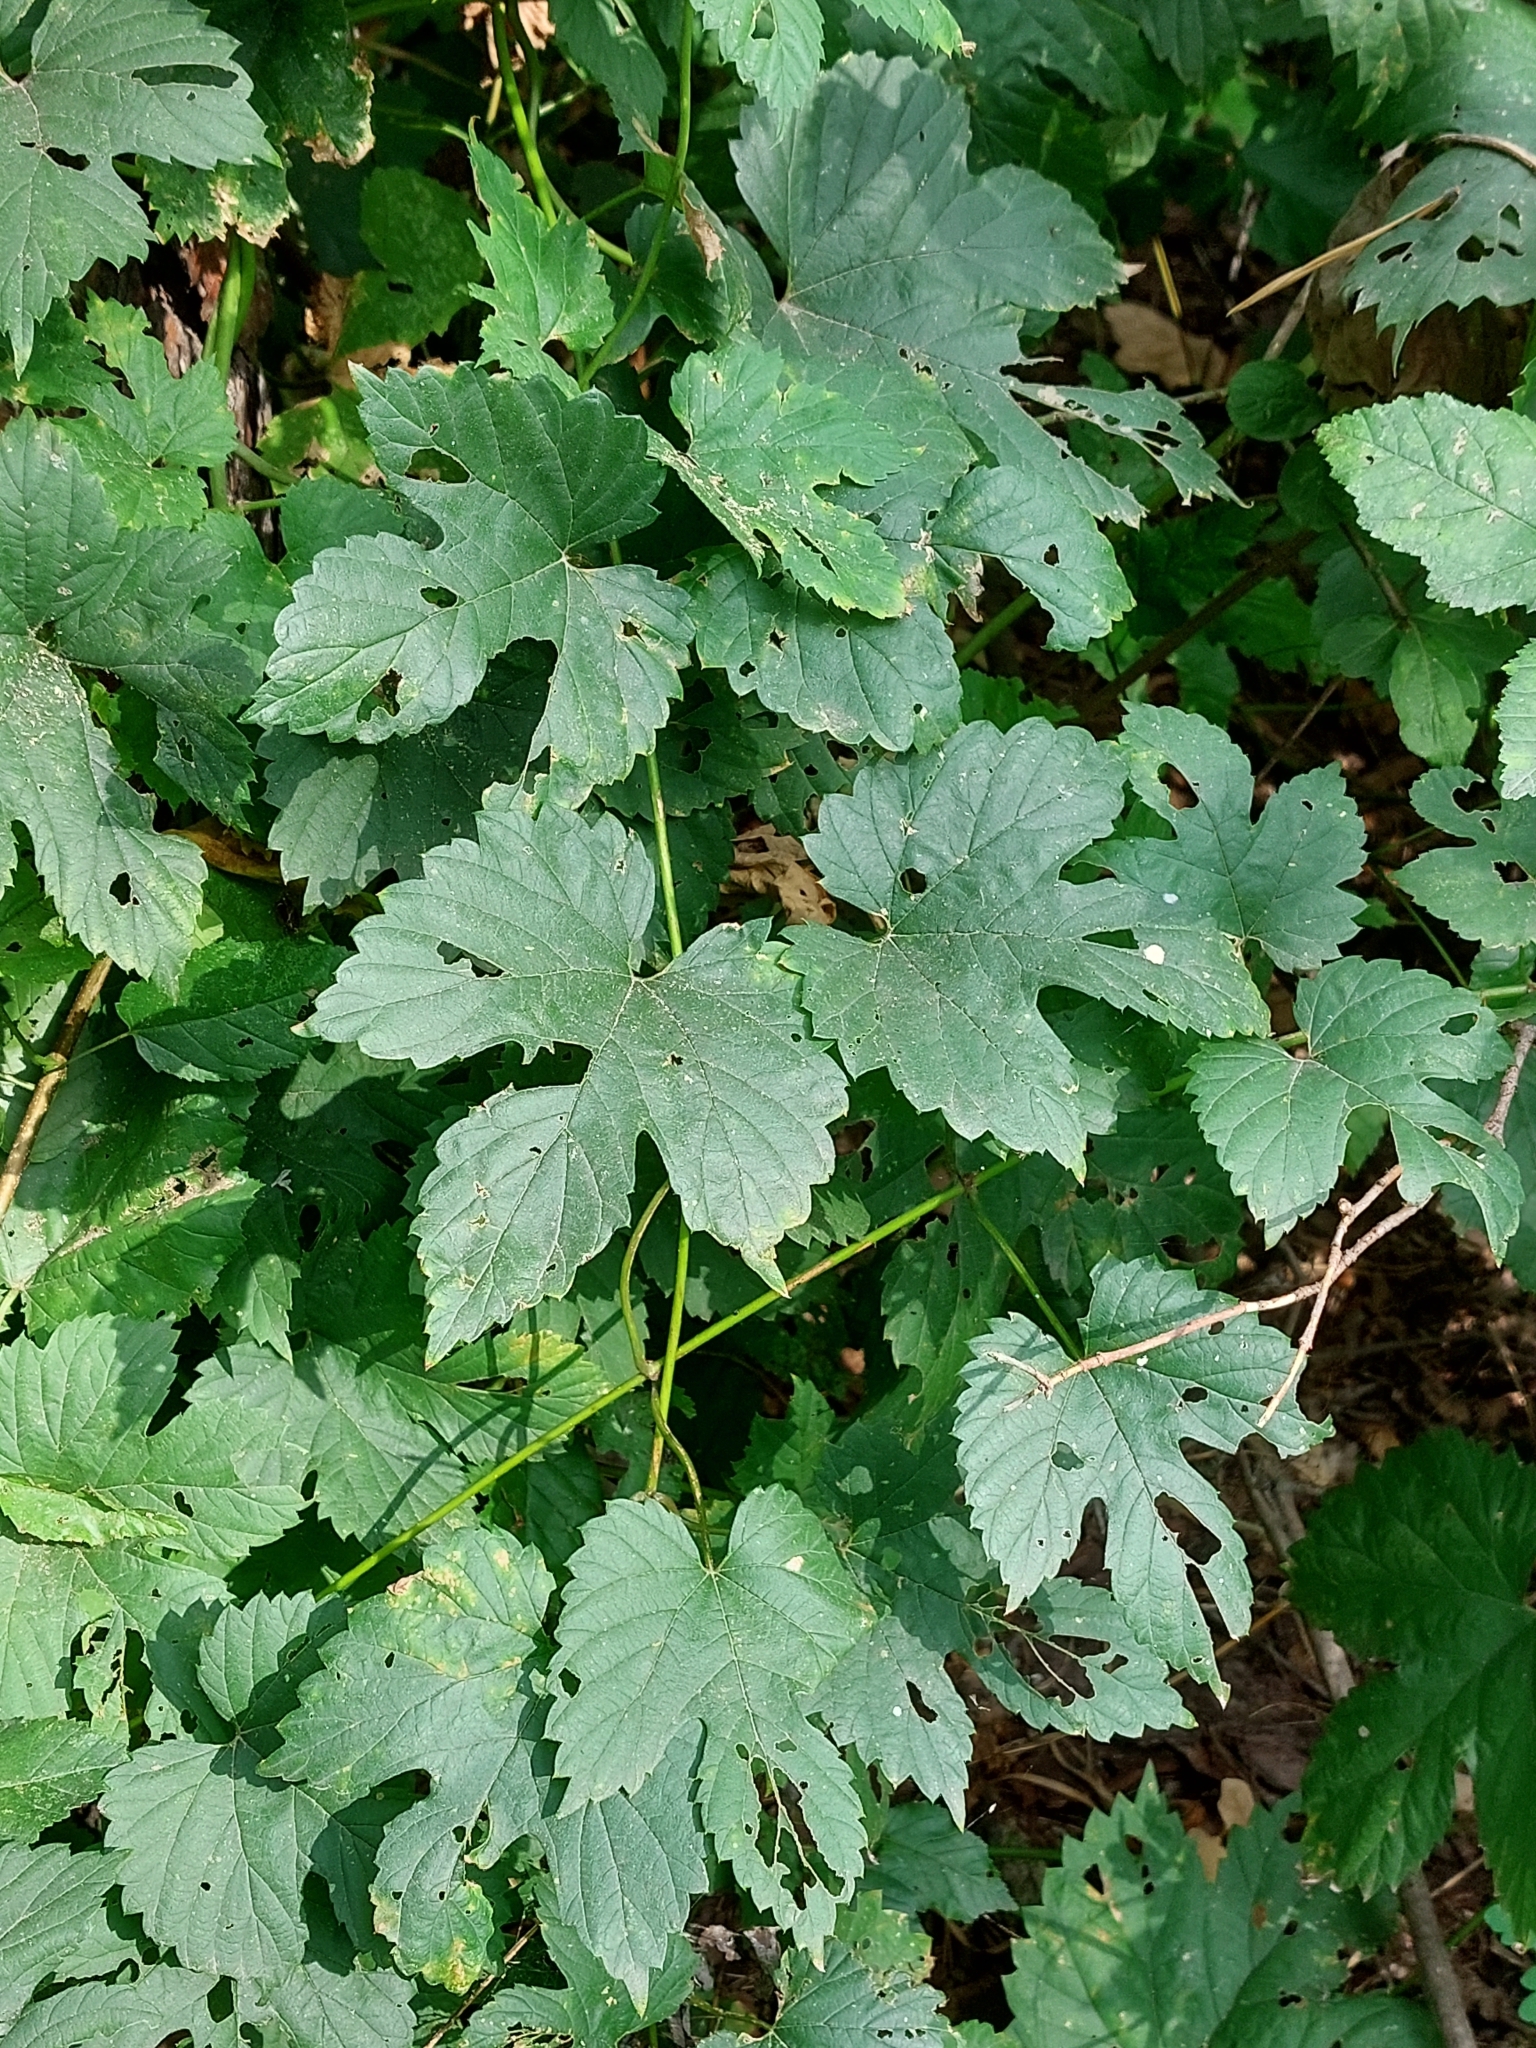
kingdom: Plantae
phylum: Tracheophyta
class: Magnoliopsida
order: Rosales
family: Cannabaceae
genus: Humulus
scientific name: Humulus lupulus
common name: Hop
